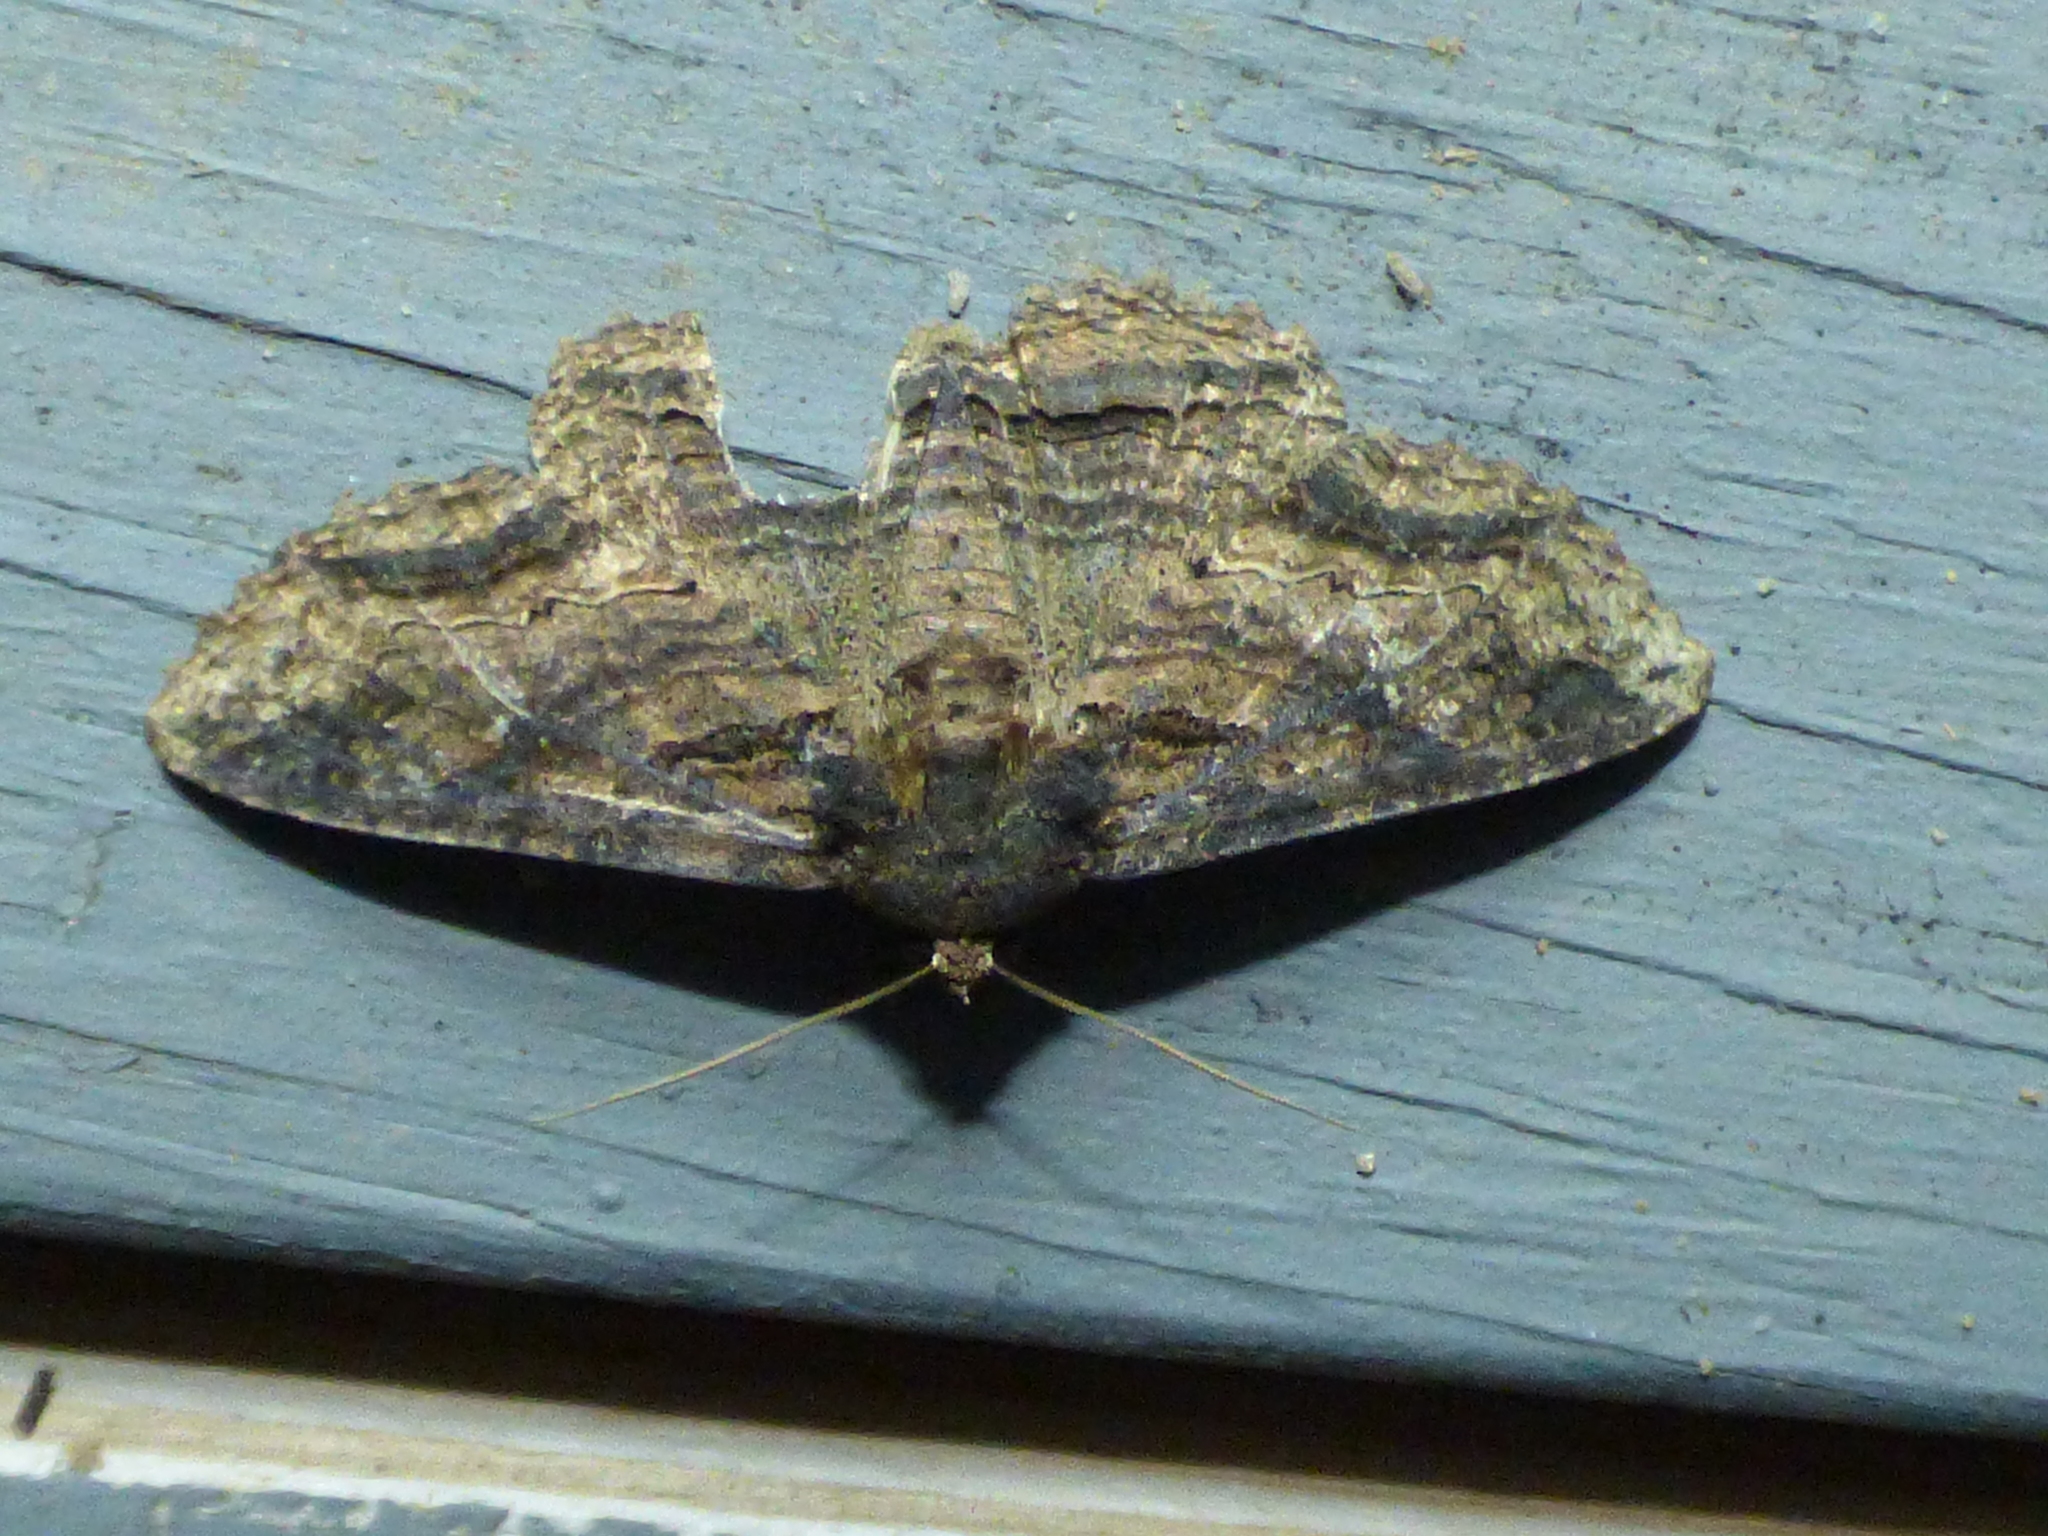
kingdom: Animalia
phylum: Arthropoda
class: Insecta
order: Lepidoptera
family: Erebidae
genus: Zale
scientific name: Zale lunata
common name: Lunate zale moth
